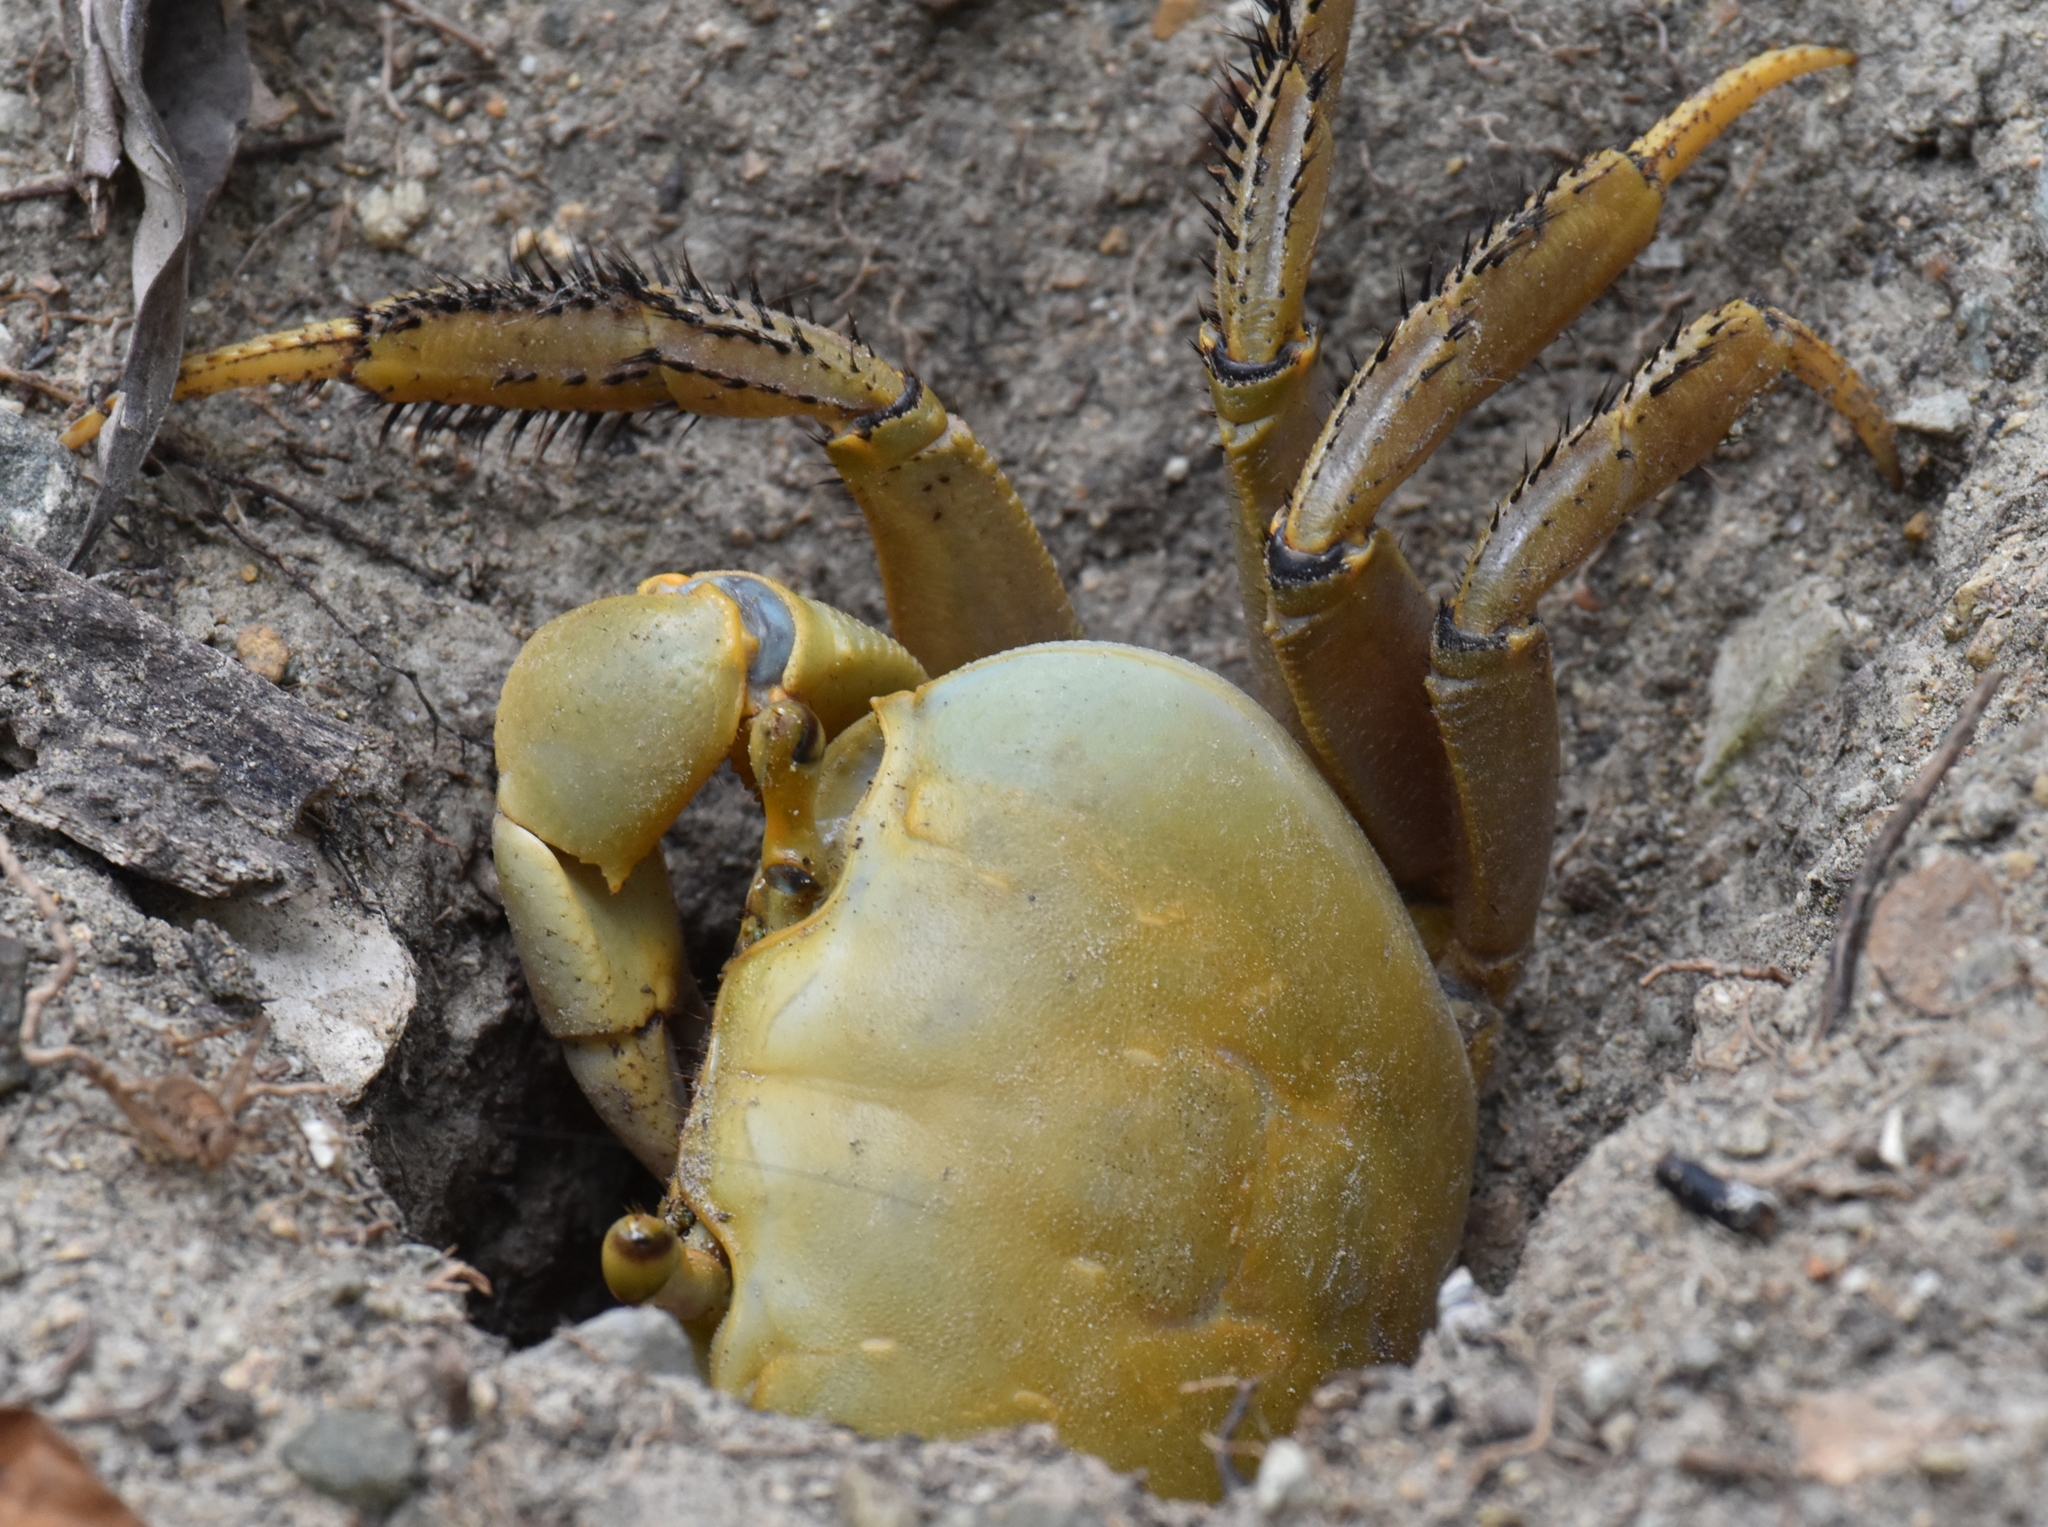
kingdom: Animalia
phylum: Arthropoda
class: Malacostraca
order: Decapoda
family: Gecarcinidae
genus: Cardisoma
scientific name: Cardisoma guanhumi
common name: Great land crab
